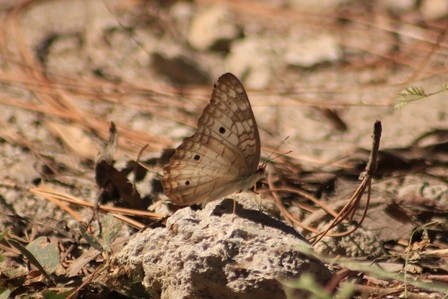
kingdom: Animalia
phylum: Arthropoda
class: Insecta
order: Lepidoptera
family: Nymphalidae
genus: Anartia
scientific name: Anartia jatrophae
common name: White peacock
